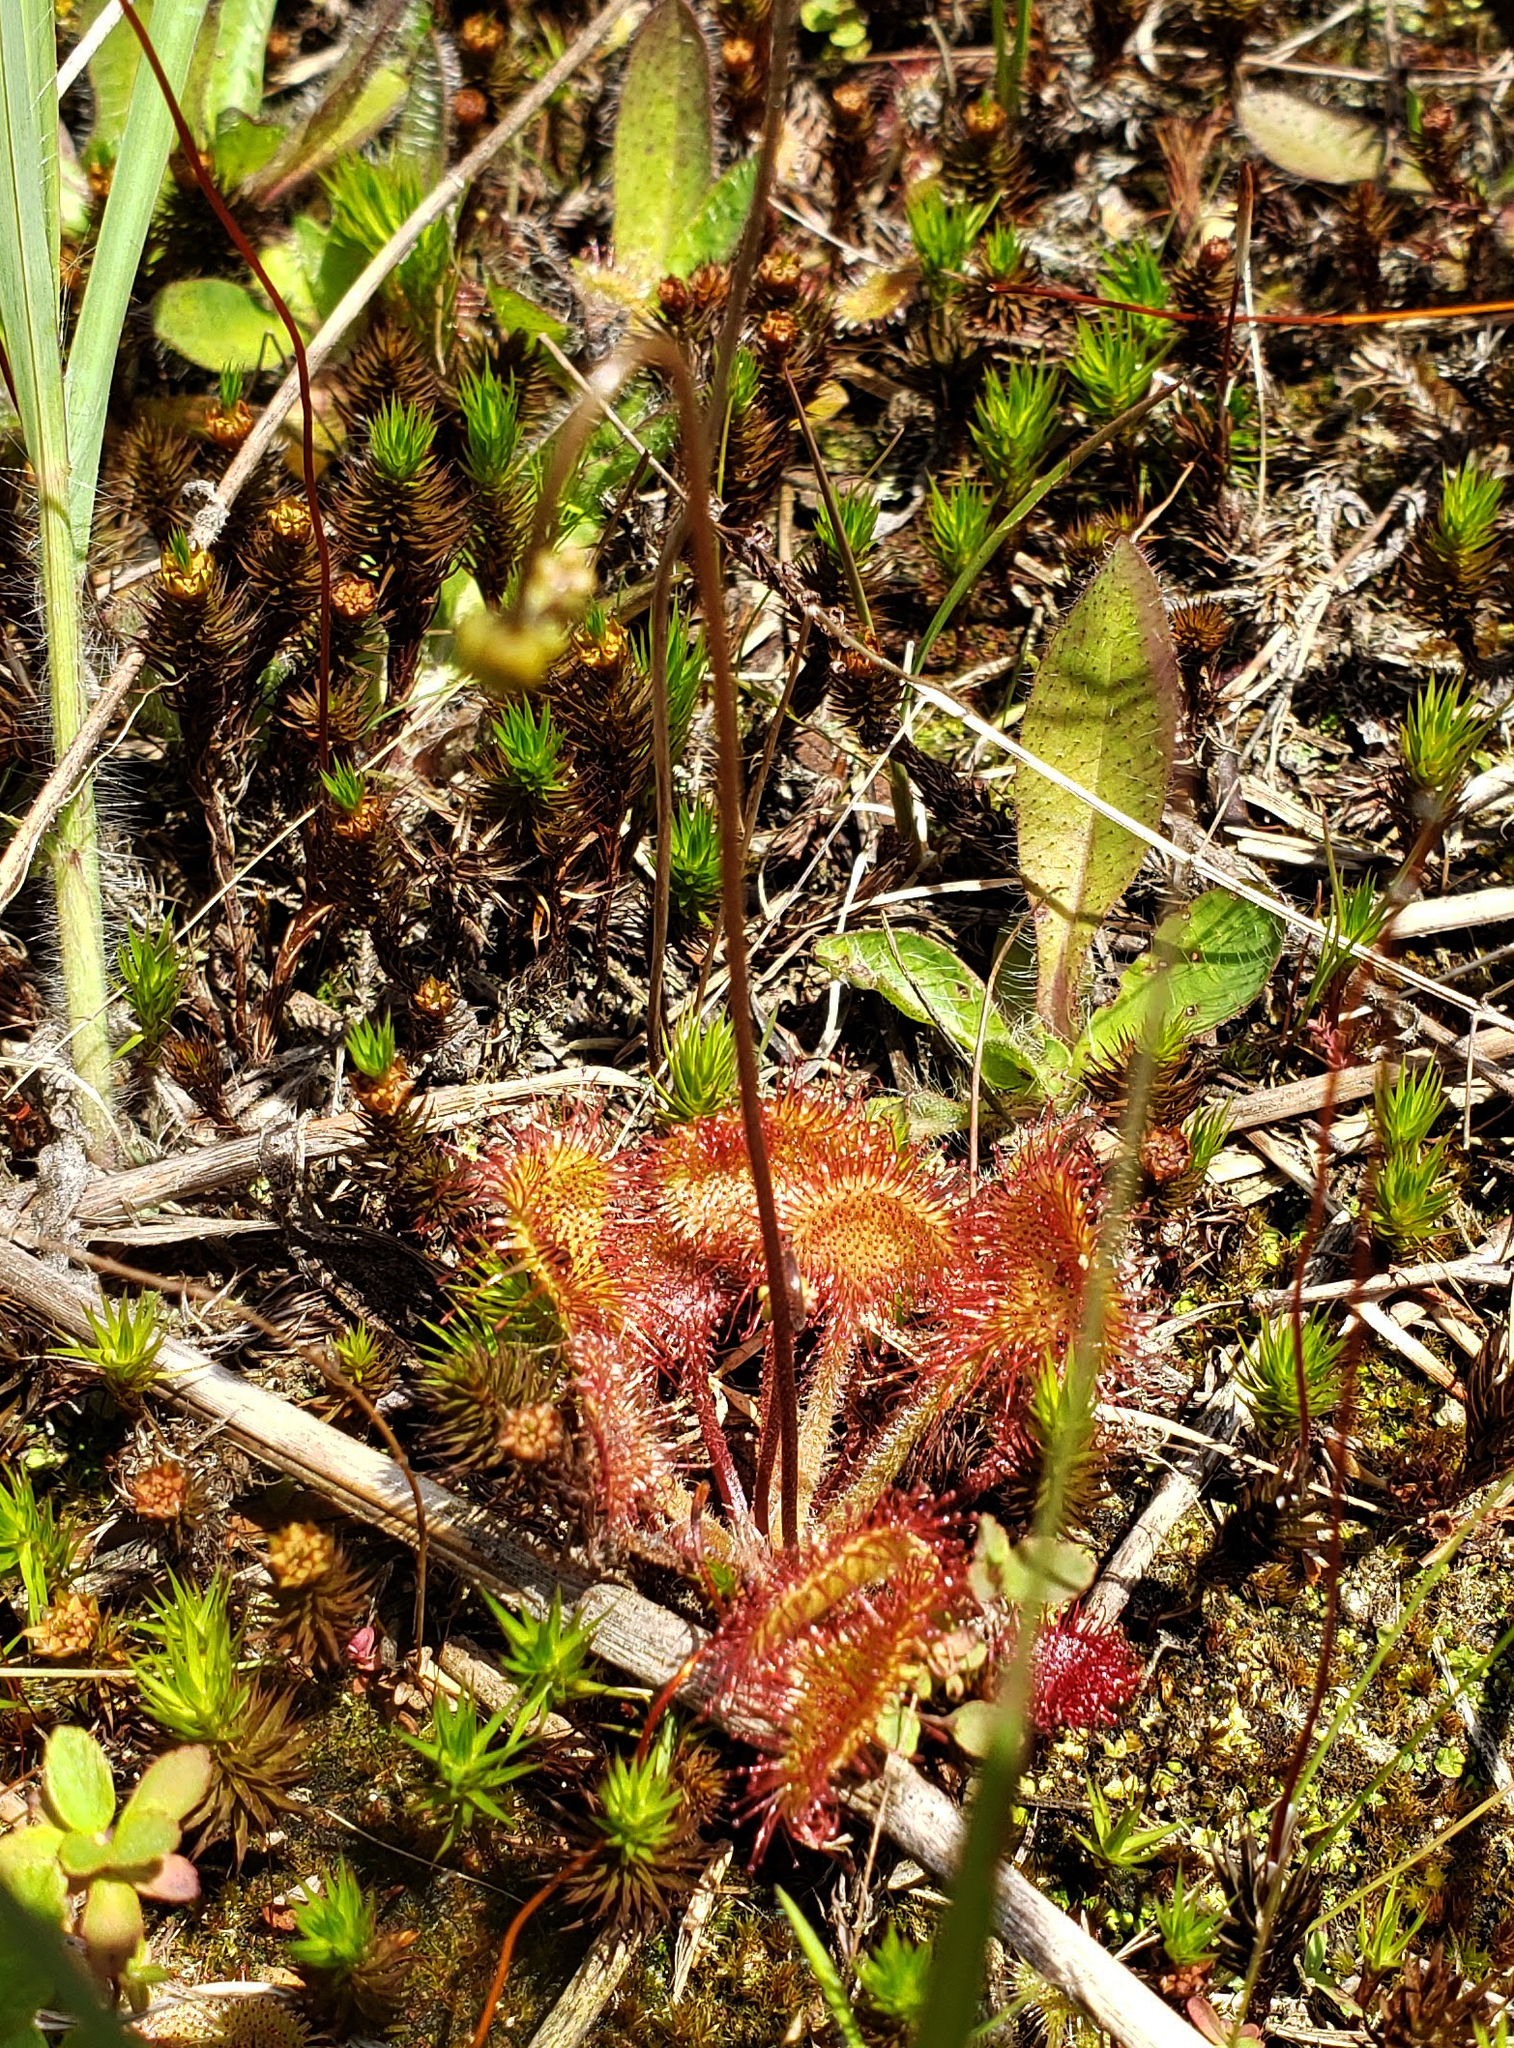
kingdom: Plantae
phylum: Tracheophyta
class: Magnoliopsida
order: Caryophyllales
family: Droseraceae
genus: Drosera
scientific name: Drosera rotundifolia
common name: Round-leaved sundew
